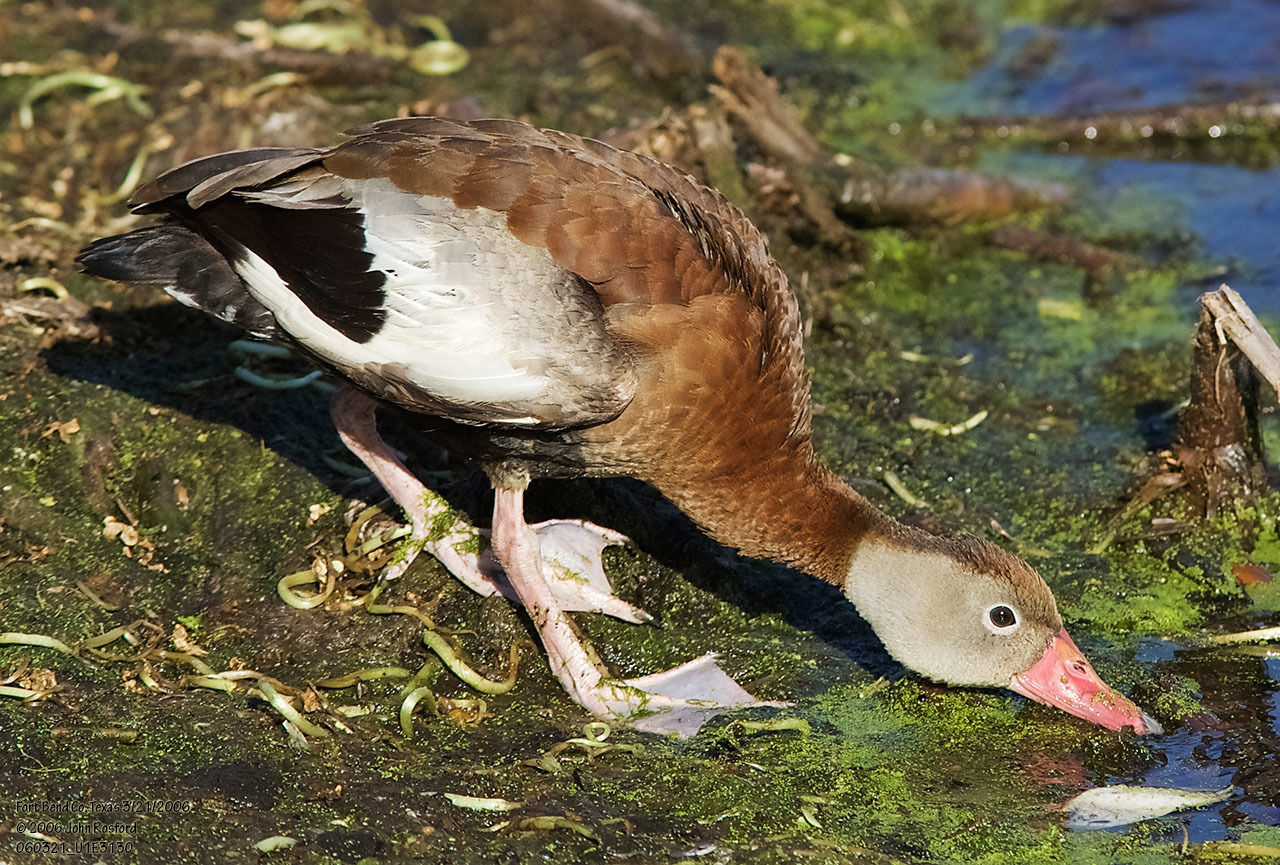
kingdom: Animalia
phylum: Chordata
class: Aves
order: Anseriformes
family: Anatidae
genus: Dendrocygna
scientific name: Dendrocygna autumnalis
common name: Black-bellied whistling duck
